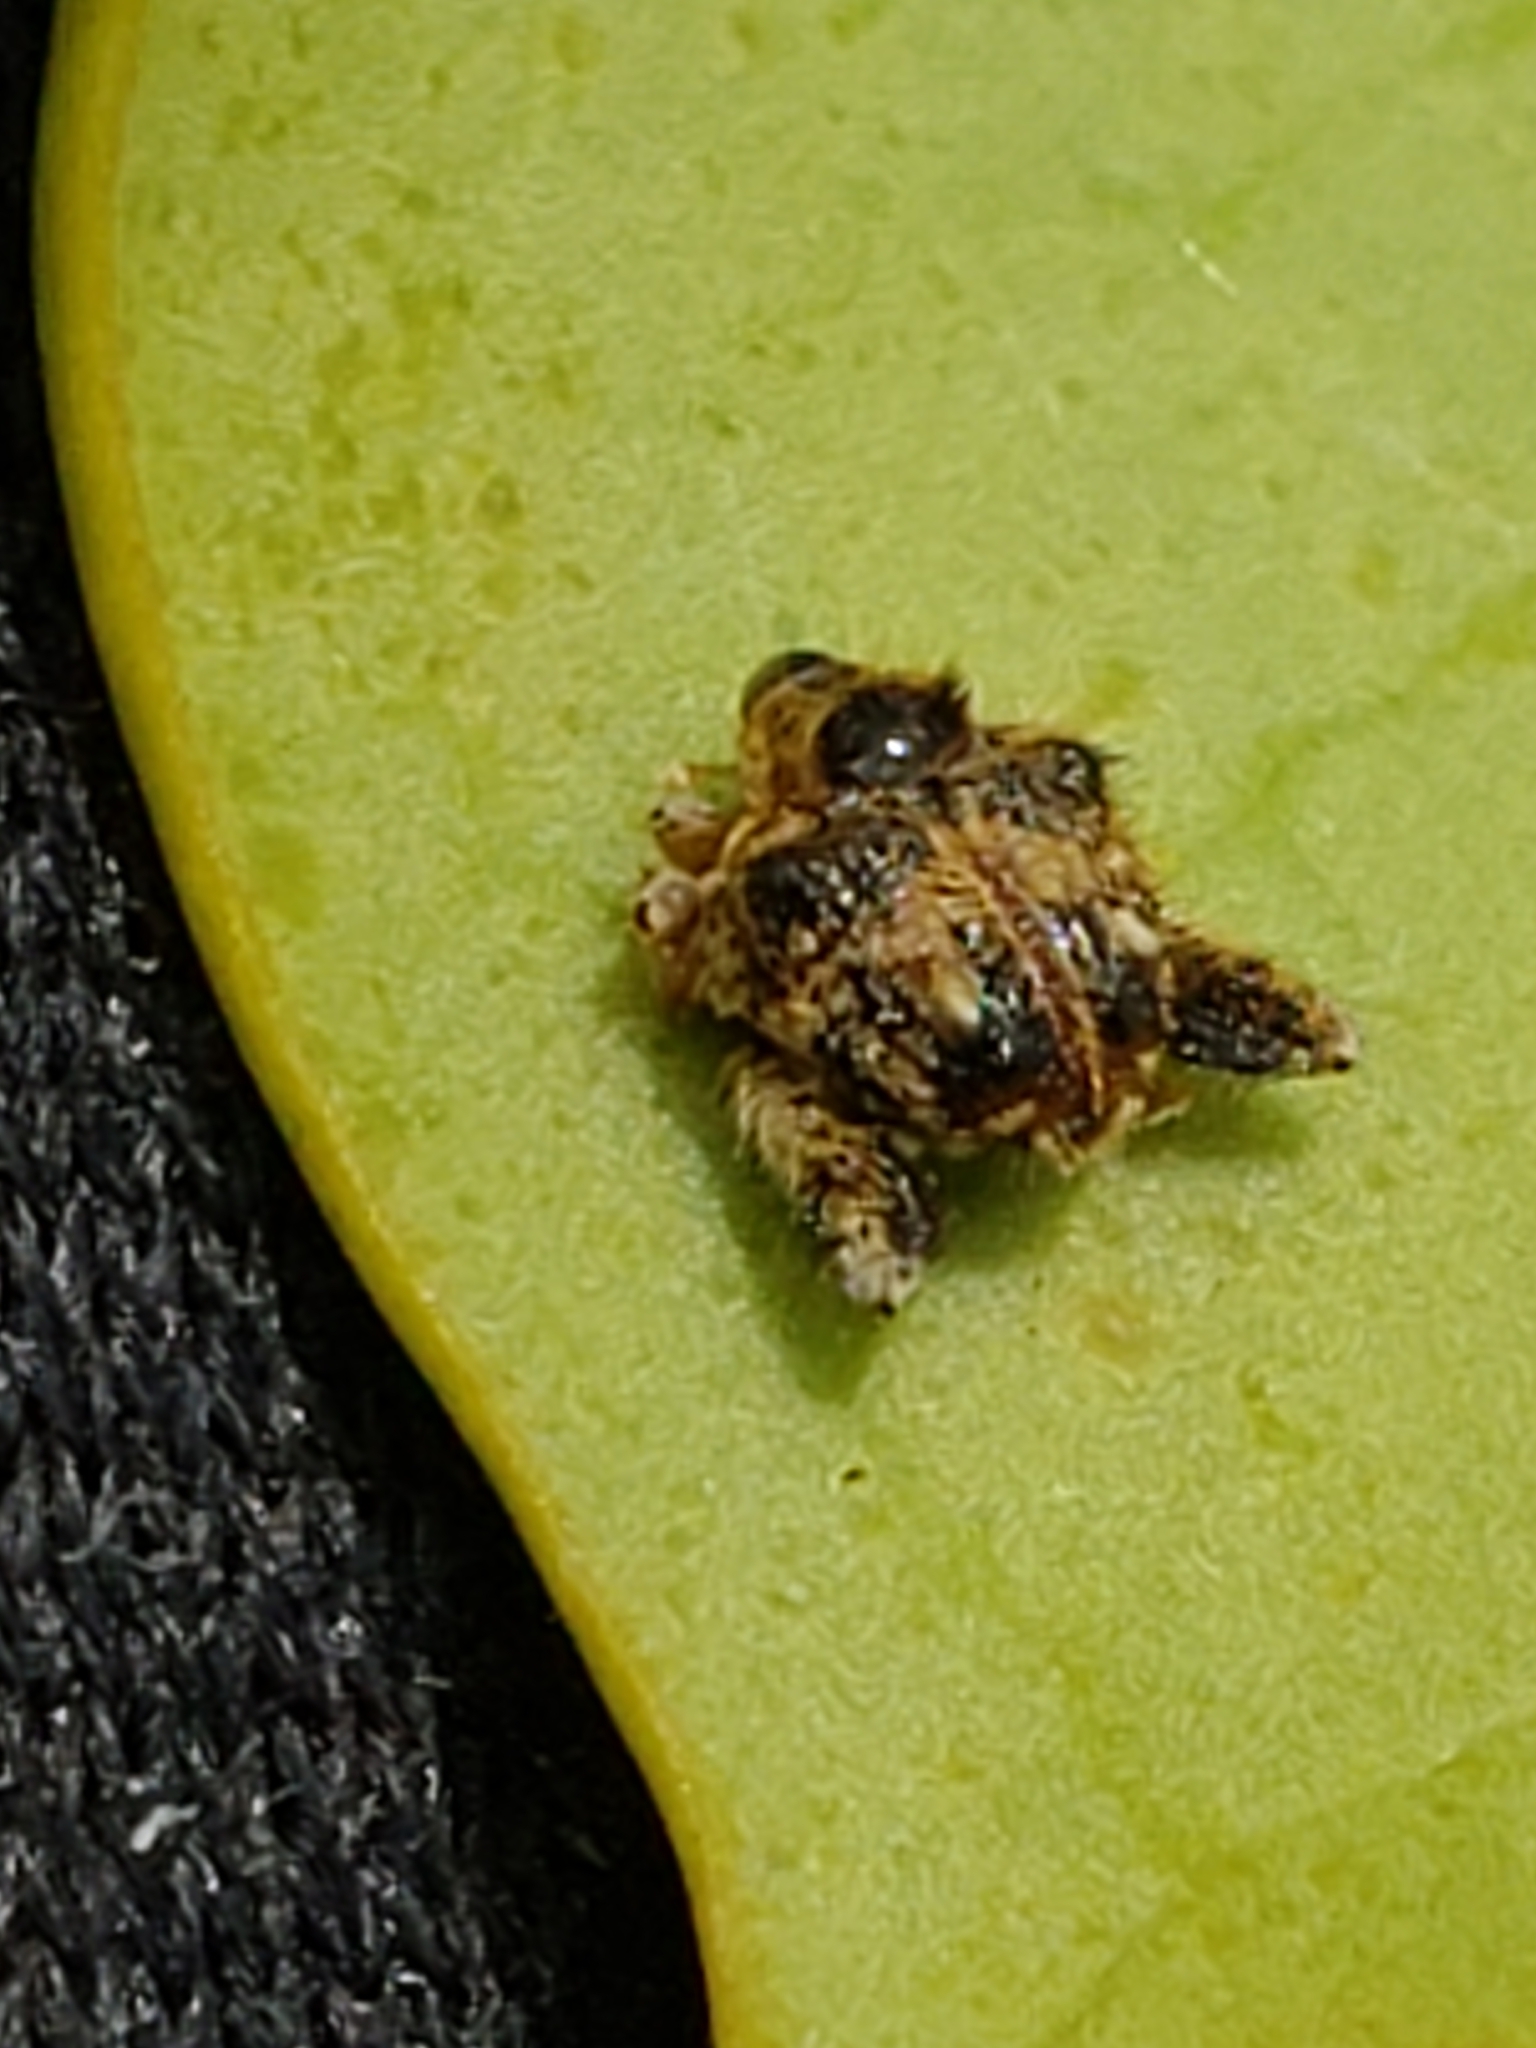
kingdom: Animalia
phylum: Arthropoda
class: Insecta
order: Coleoptera
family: Curculionidae
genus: Tachygonus
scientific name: Tachygonus lecontei
